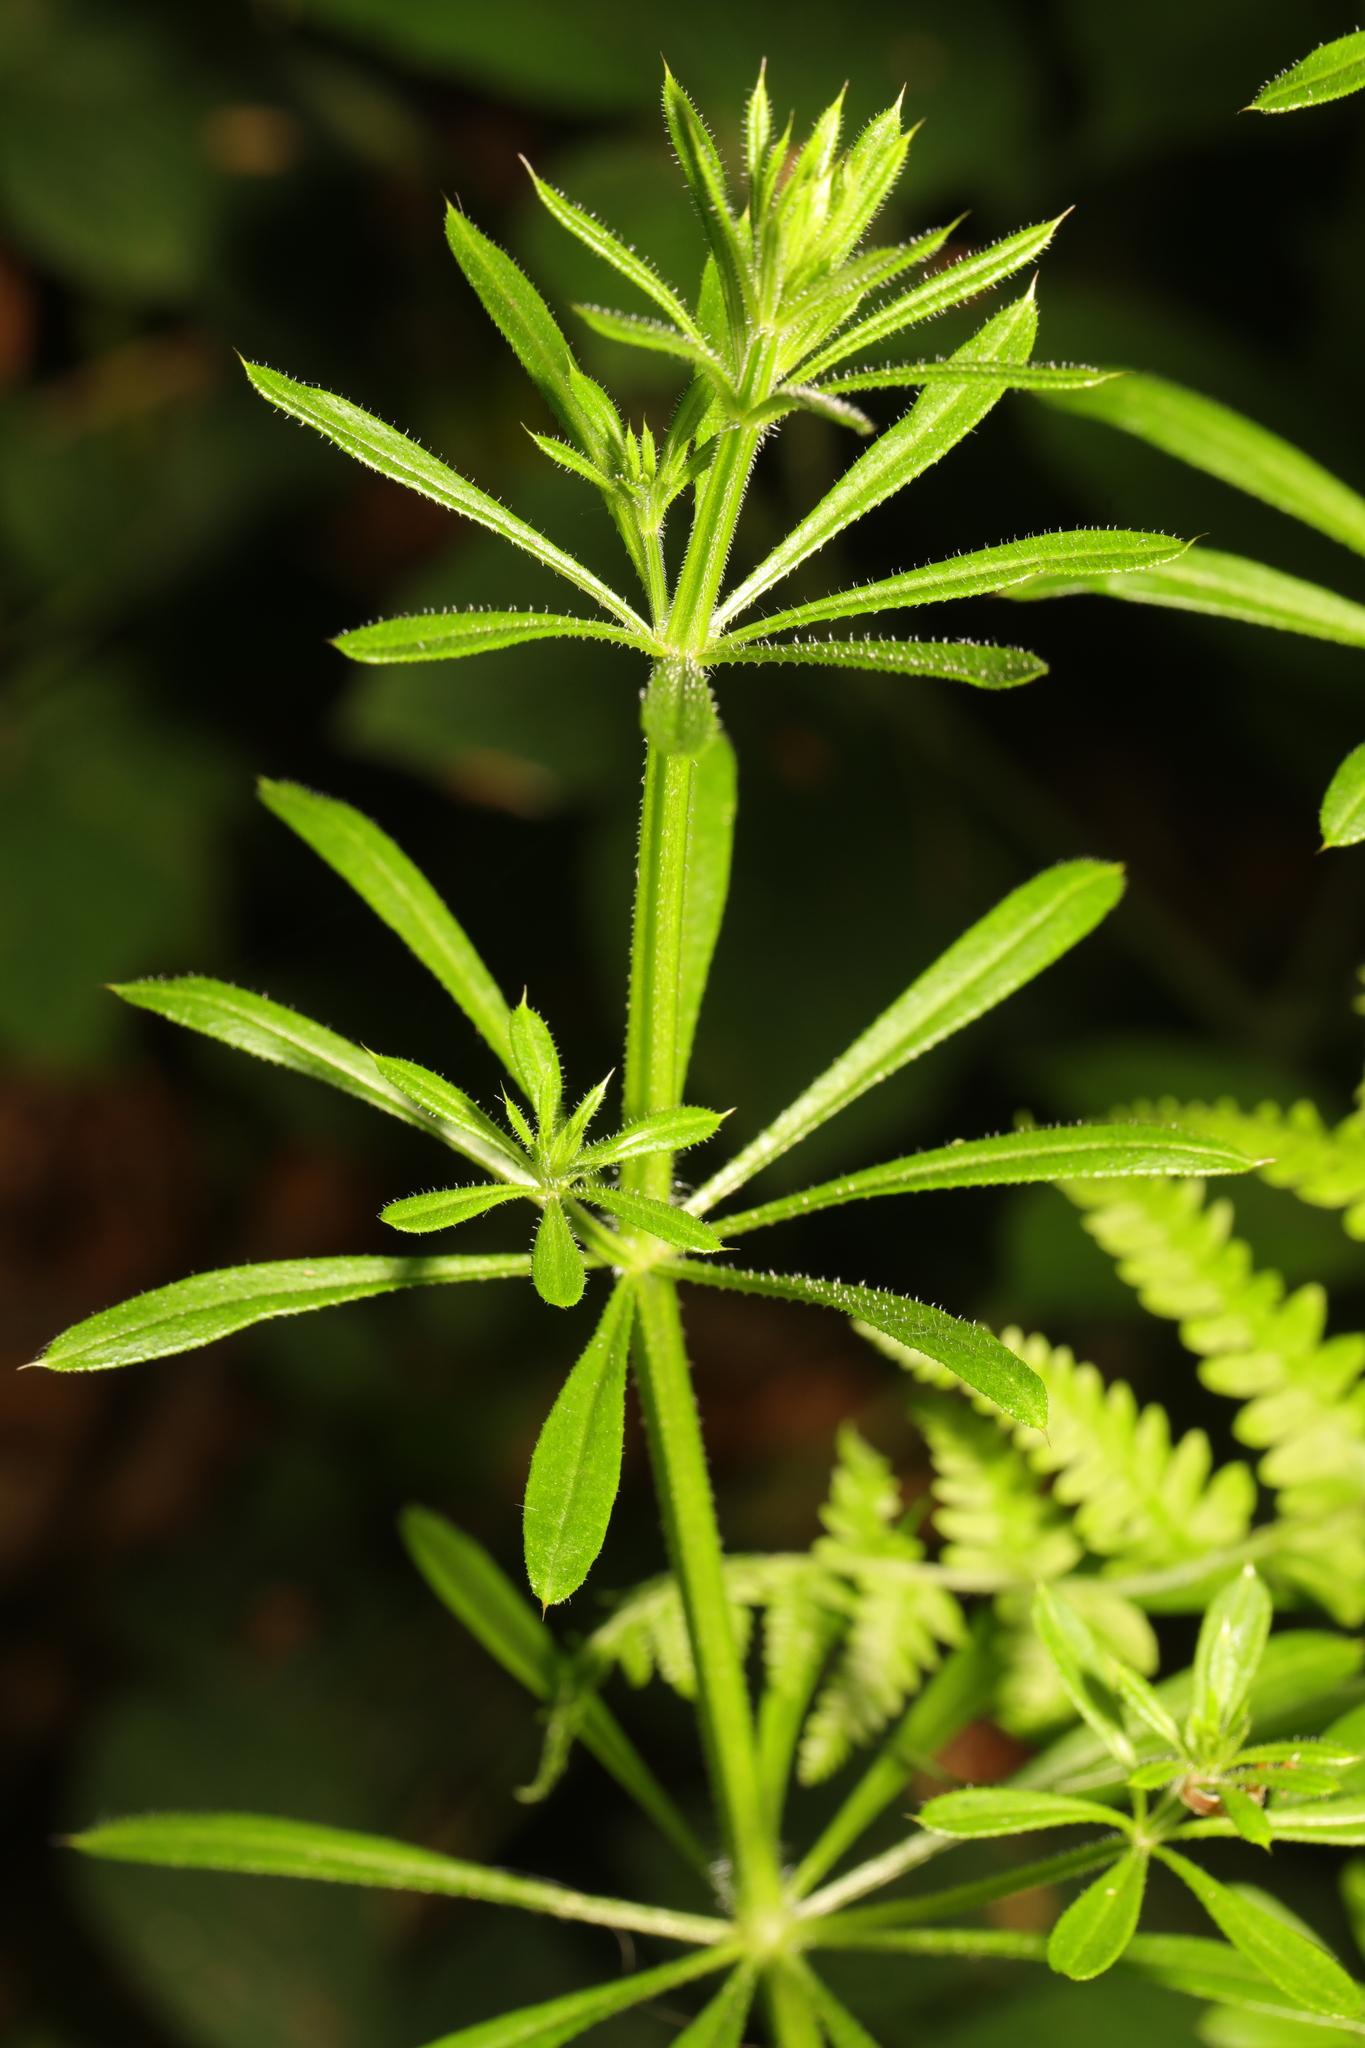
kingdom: Plantae
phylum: Tracheophyta
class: Magnoliopsida
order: Gentianales
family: Rubiaceae
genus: Galium
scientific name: Galium aparine
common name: Cleavers
